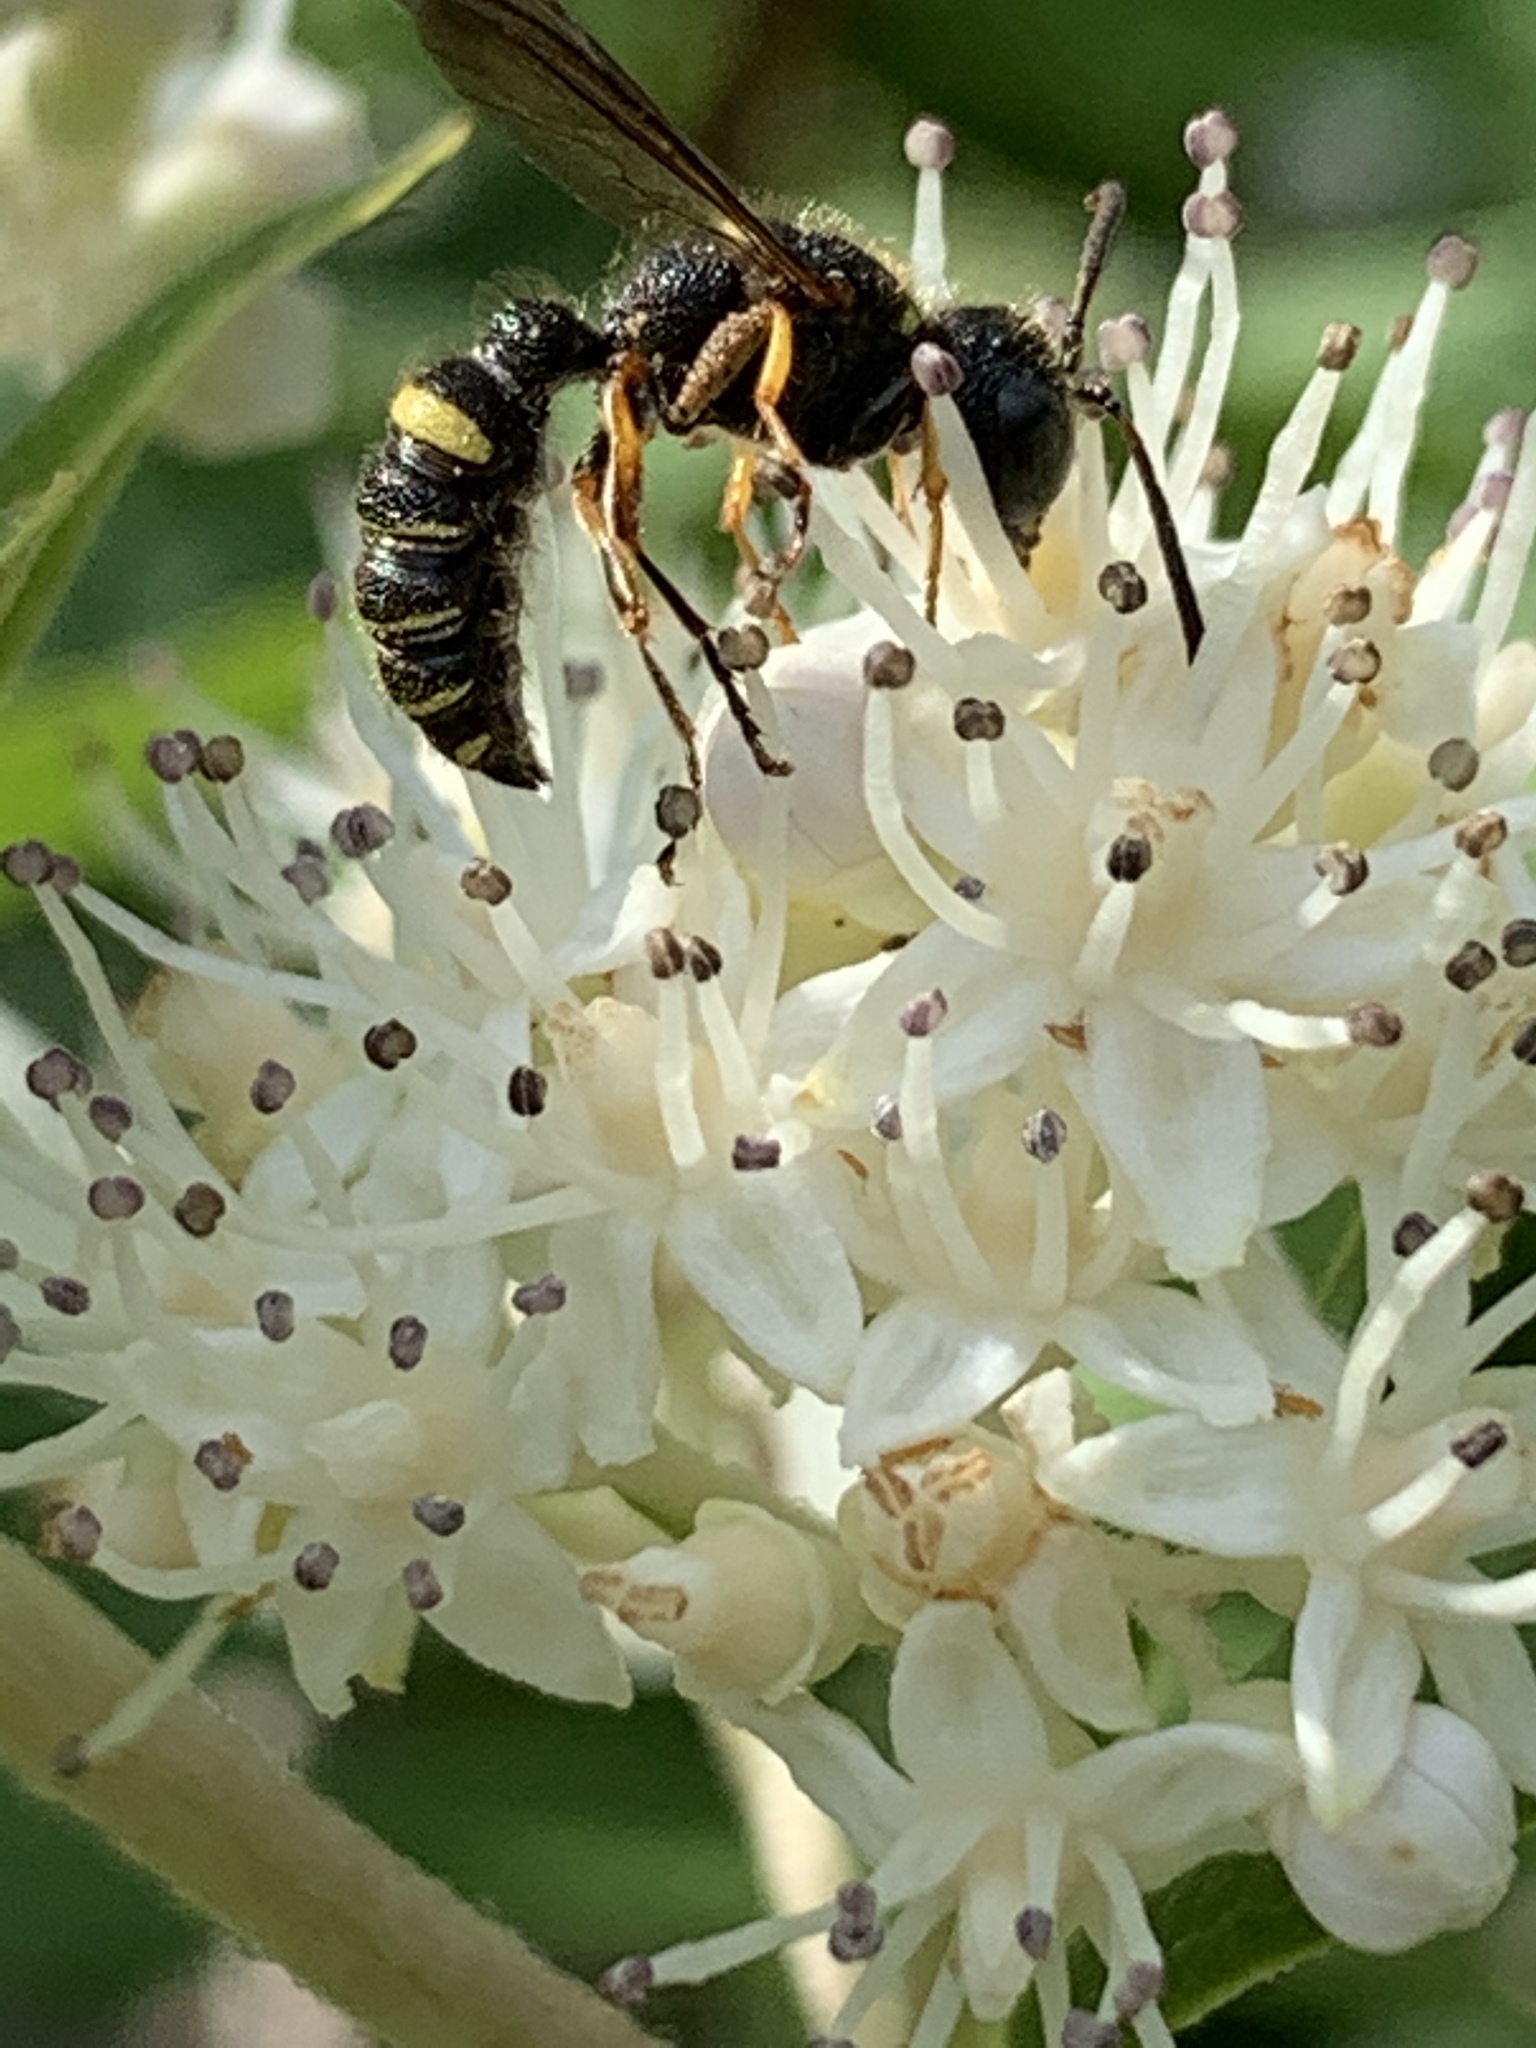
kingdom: Animalia
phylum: Arthropoda
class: Insecta
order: Hymenoptera
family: Crabronidae
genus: Philanthus
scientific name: Philanthus gibbosus
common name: Humped beewolf
